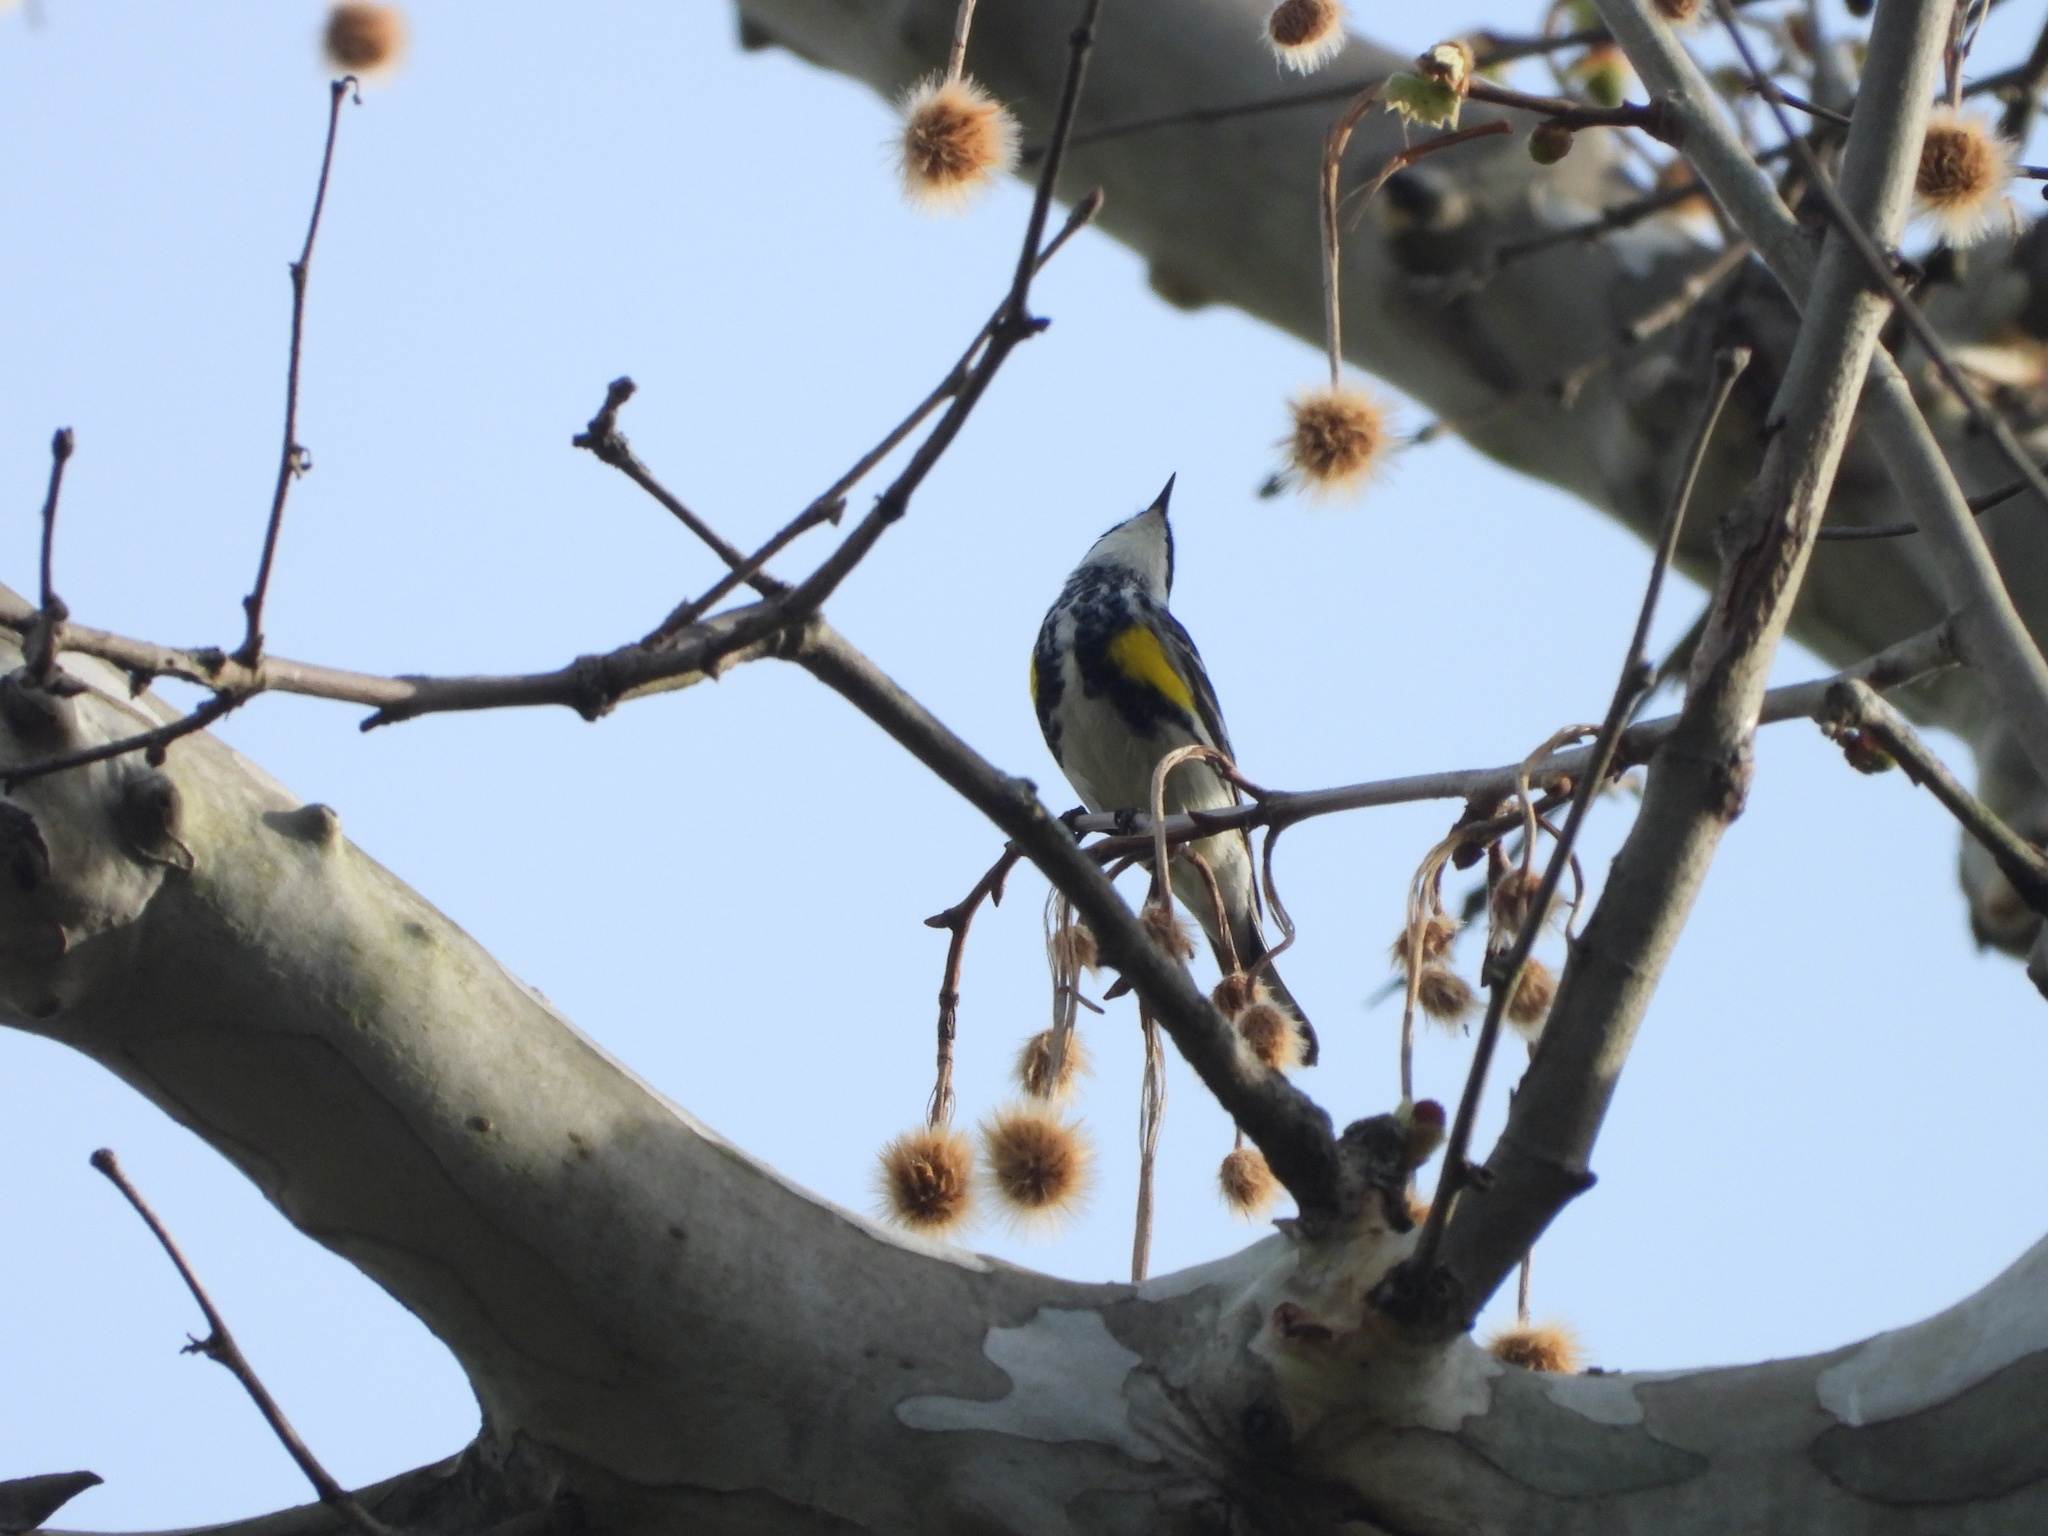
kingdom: Animalia
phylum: Chordata
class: Aves
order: Passeriformes
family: Parulidae
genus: Setophaga
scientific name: Setophaga coronata
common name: Myrtle warbler
